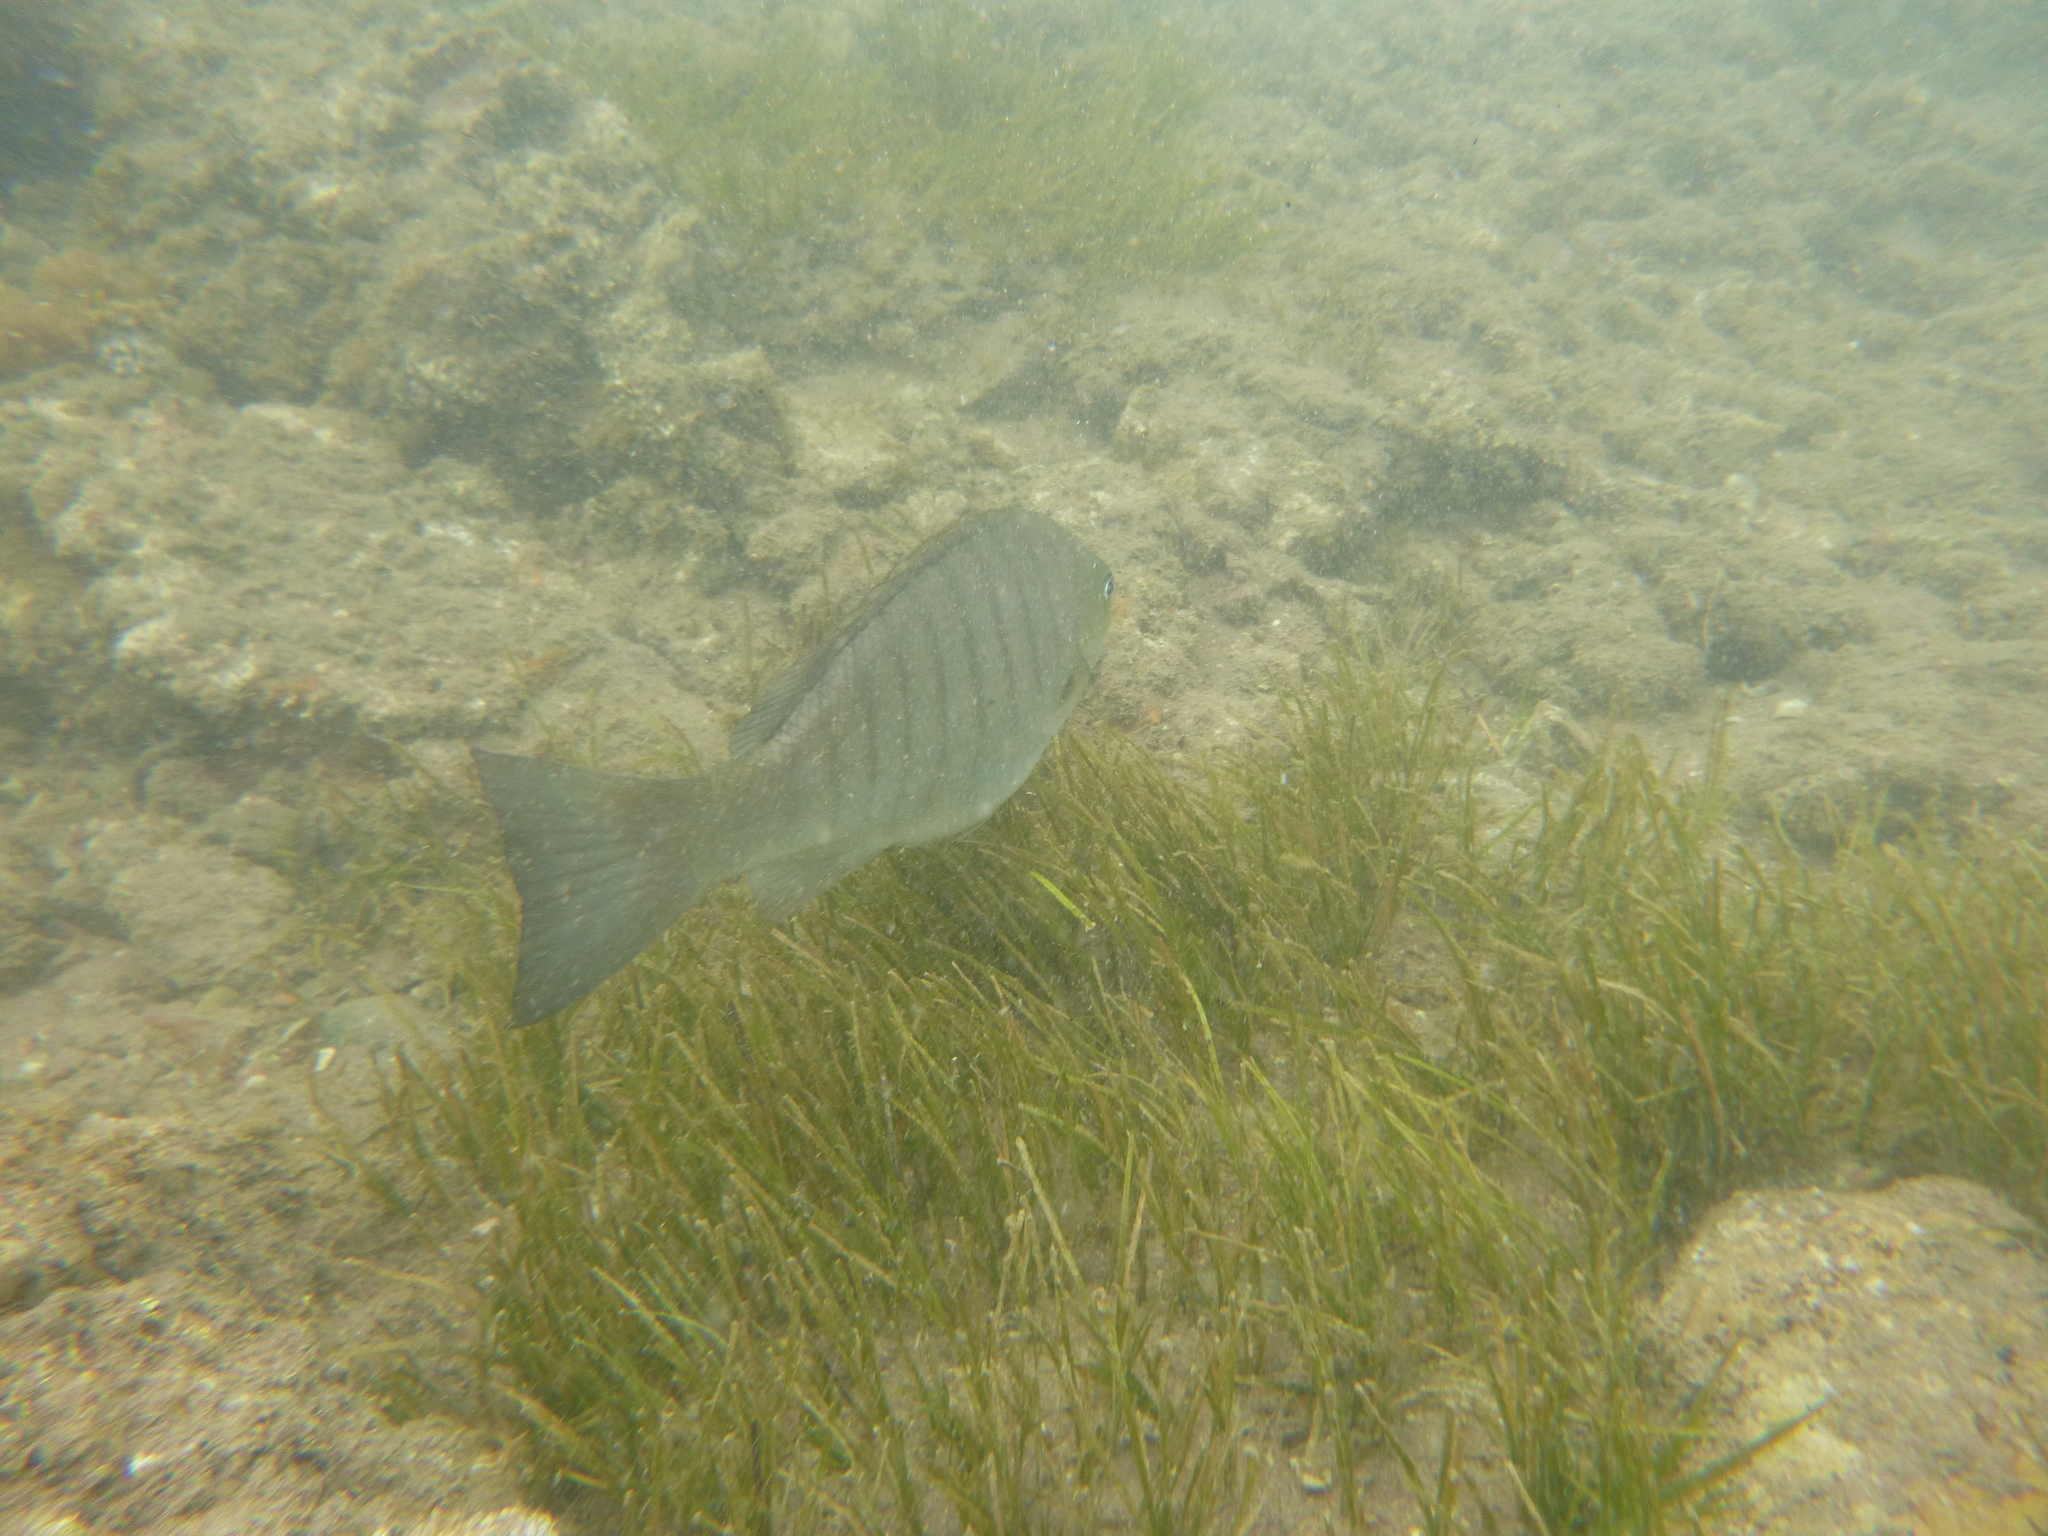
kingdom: Animalia
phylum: Chordata
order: Perciformes
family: Kyphosidae
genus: Girella
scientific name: Girella tricuspidata
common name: Parore
